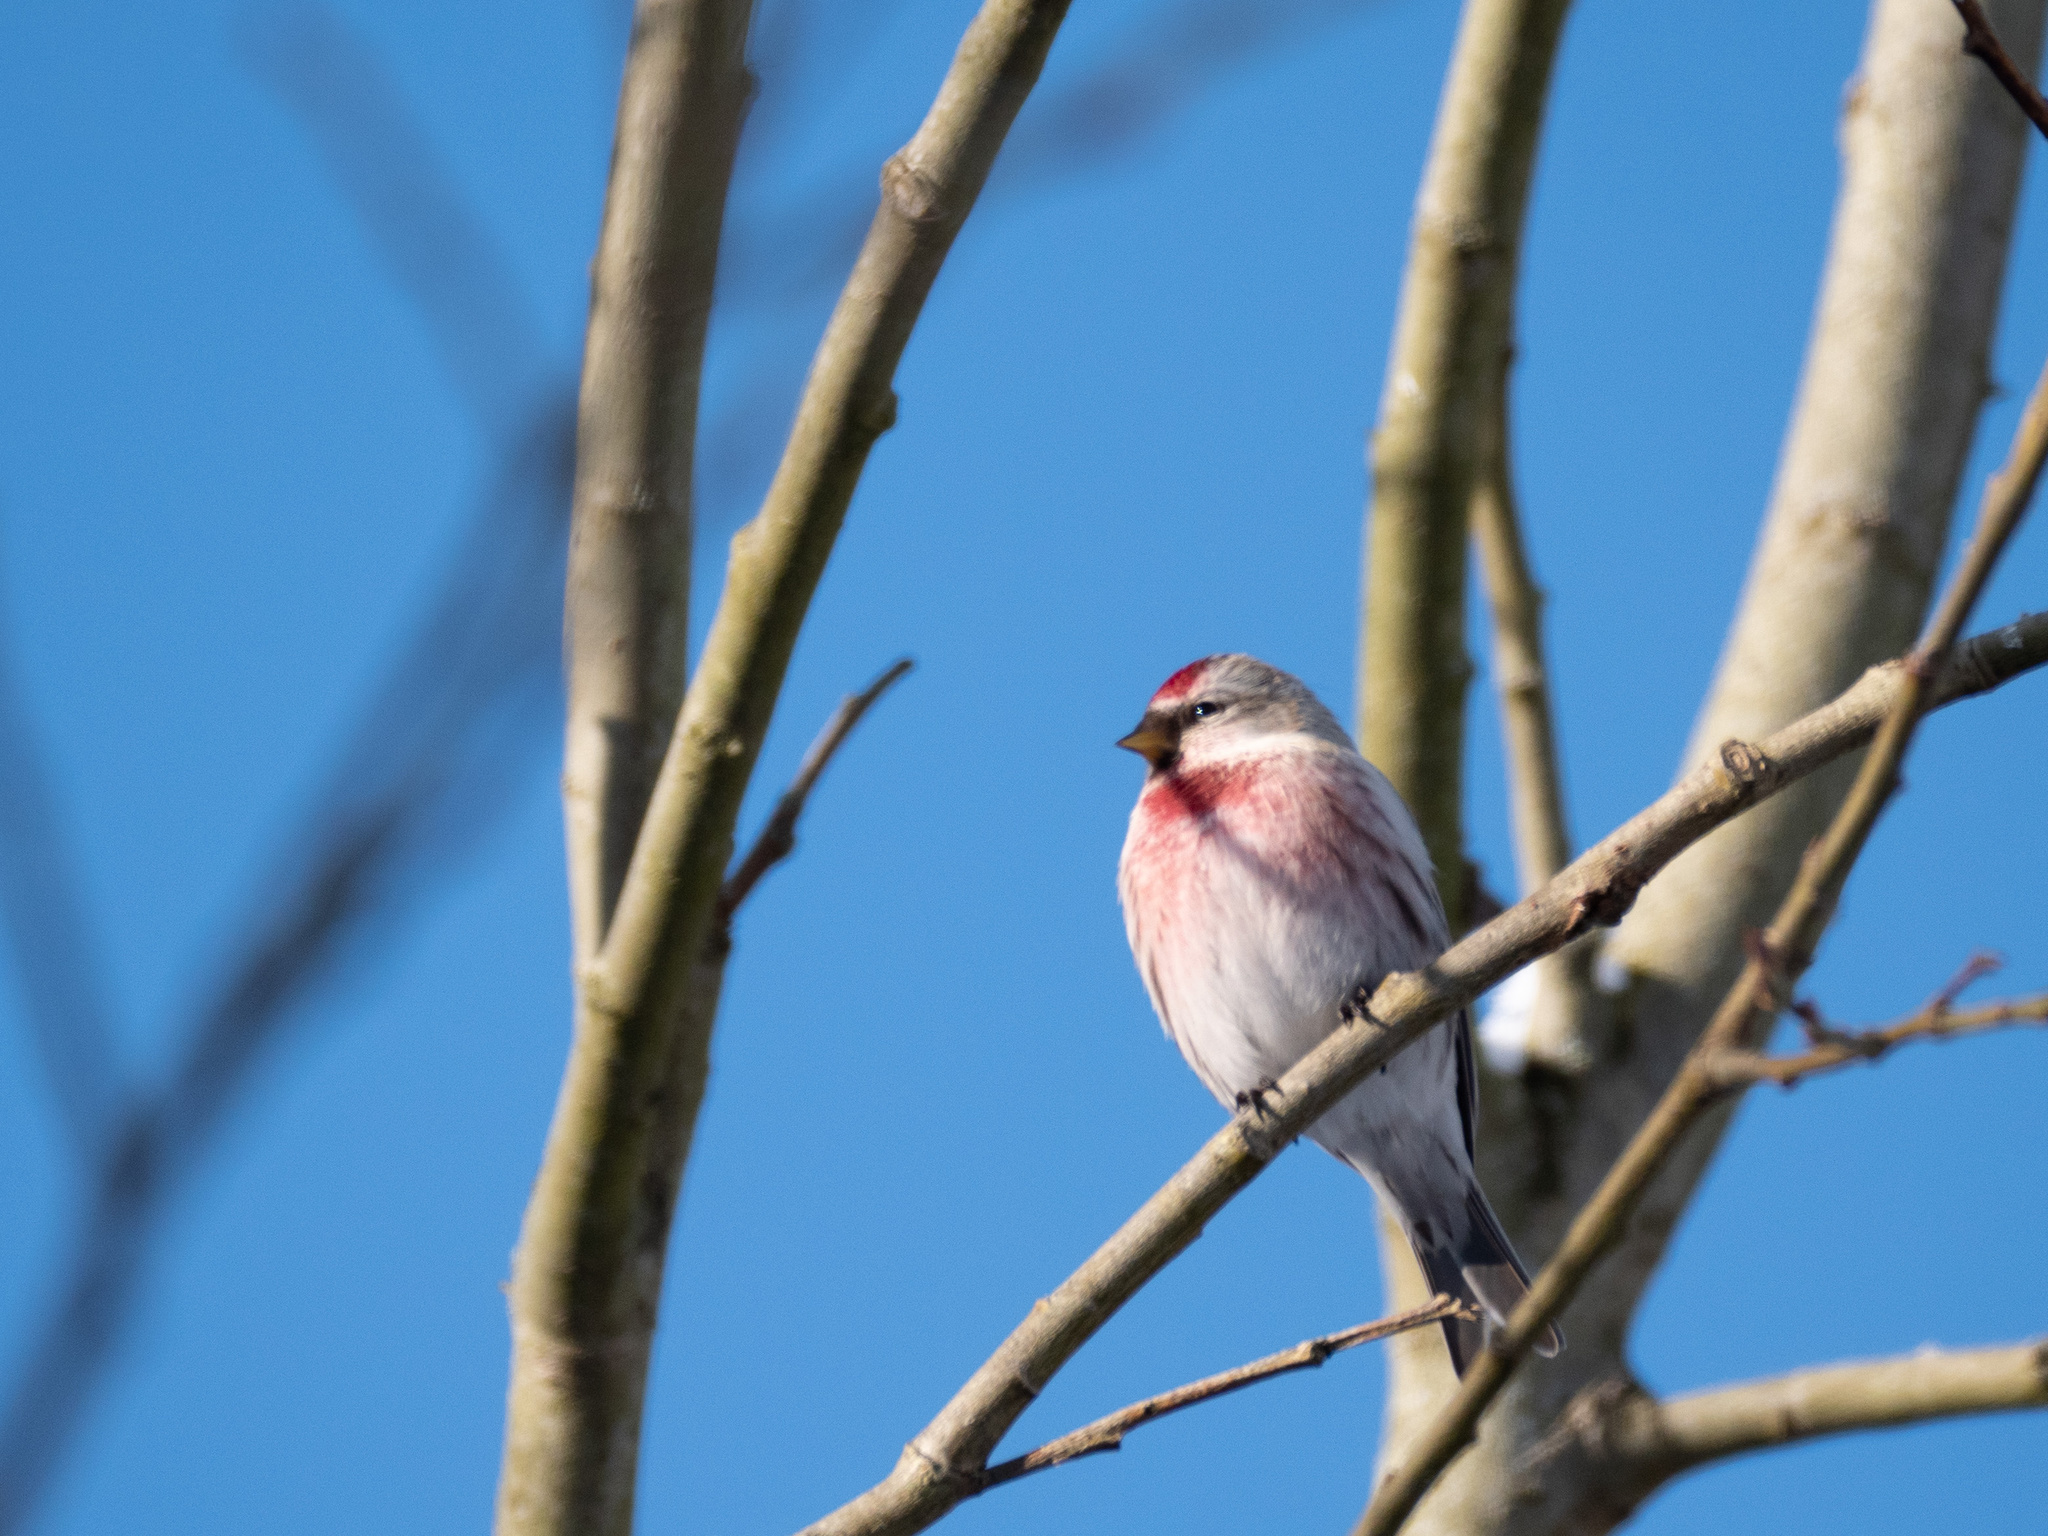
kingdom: Animalia
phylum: Chordata
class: Aves
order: Passeriformes
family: Fringillidae
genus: Acanthis
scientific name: Acanthis flammea
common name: Common redpoll
